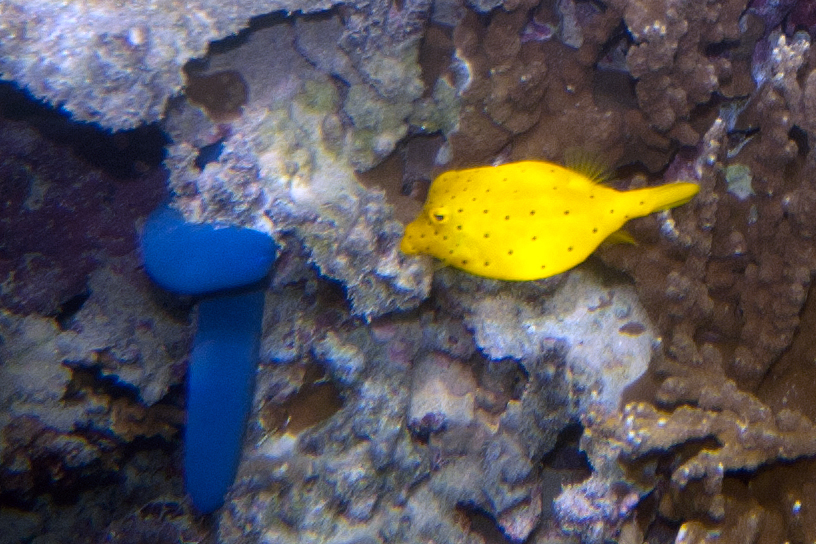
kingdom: Animalia
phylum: Chordata
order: Tetraodontiformes
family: Ostraciidae
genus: Ostracion
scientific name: Ostracion cubicus
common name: Cube trunkfish
